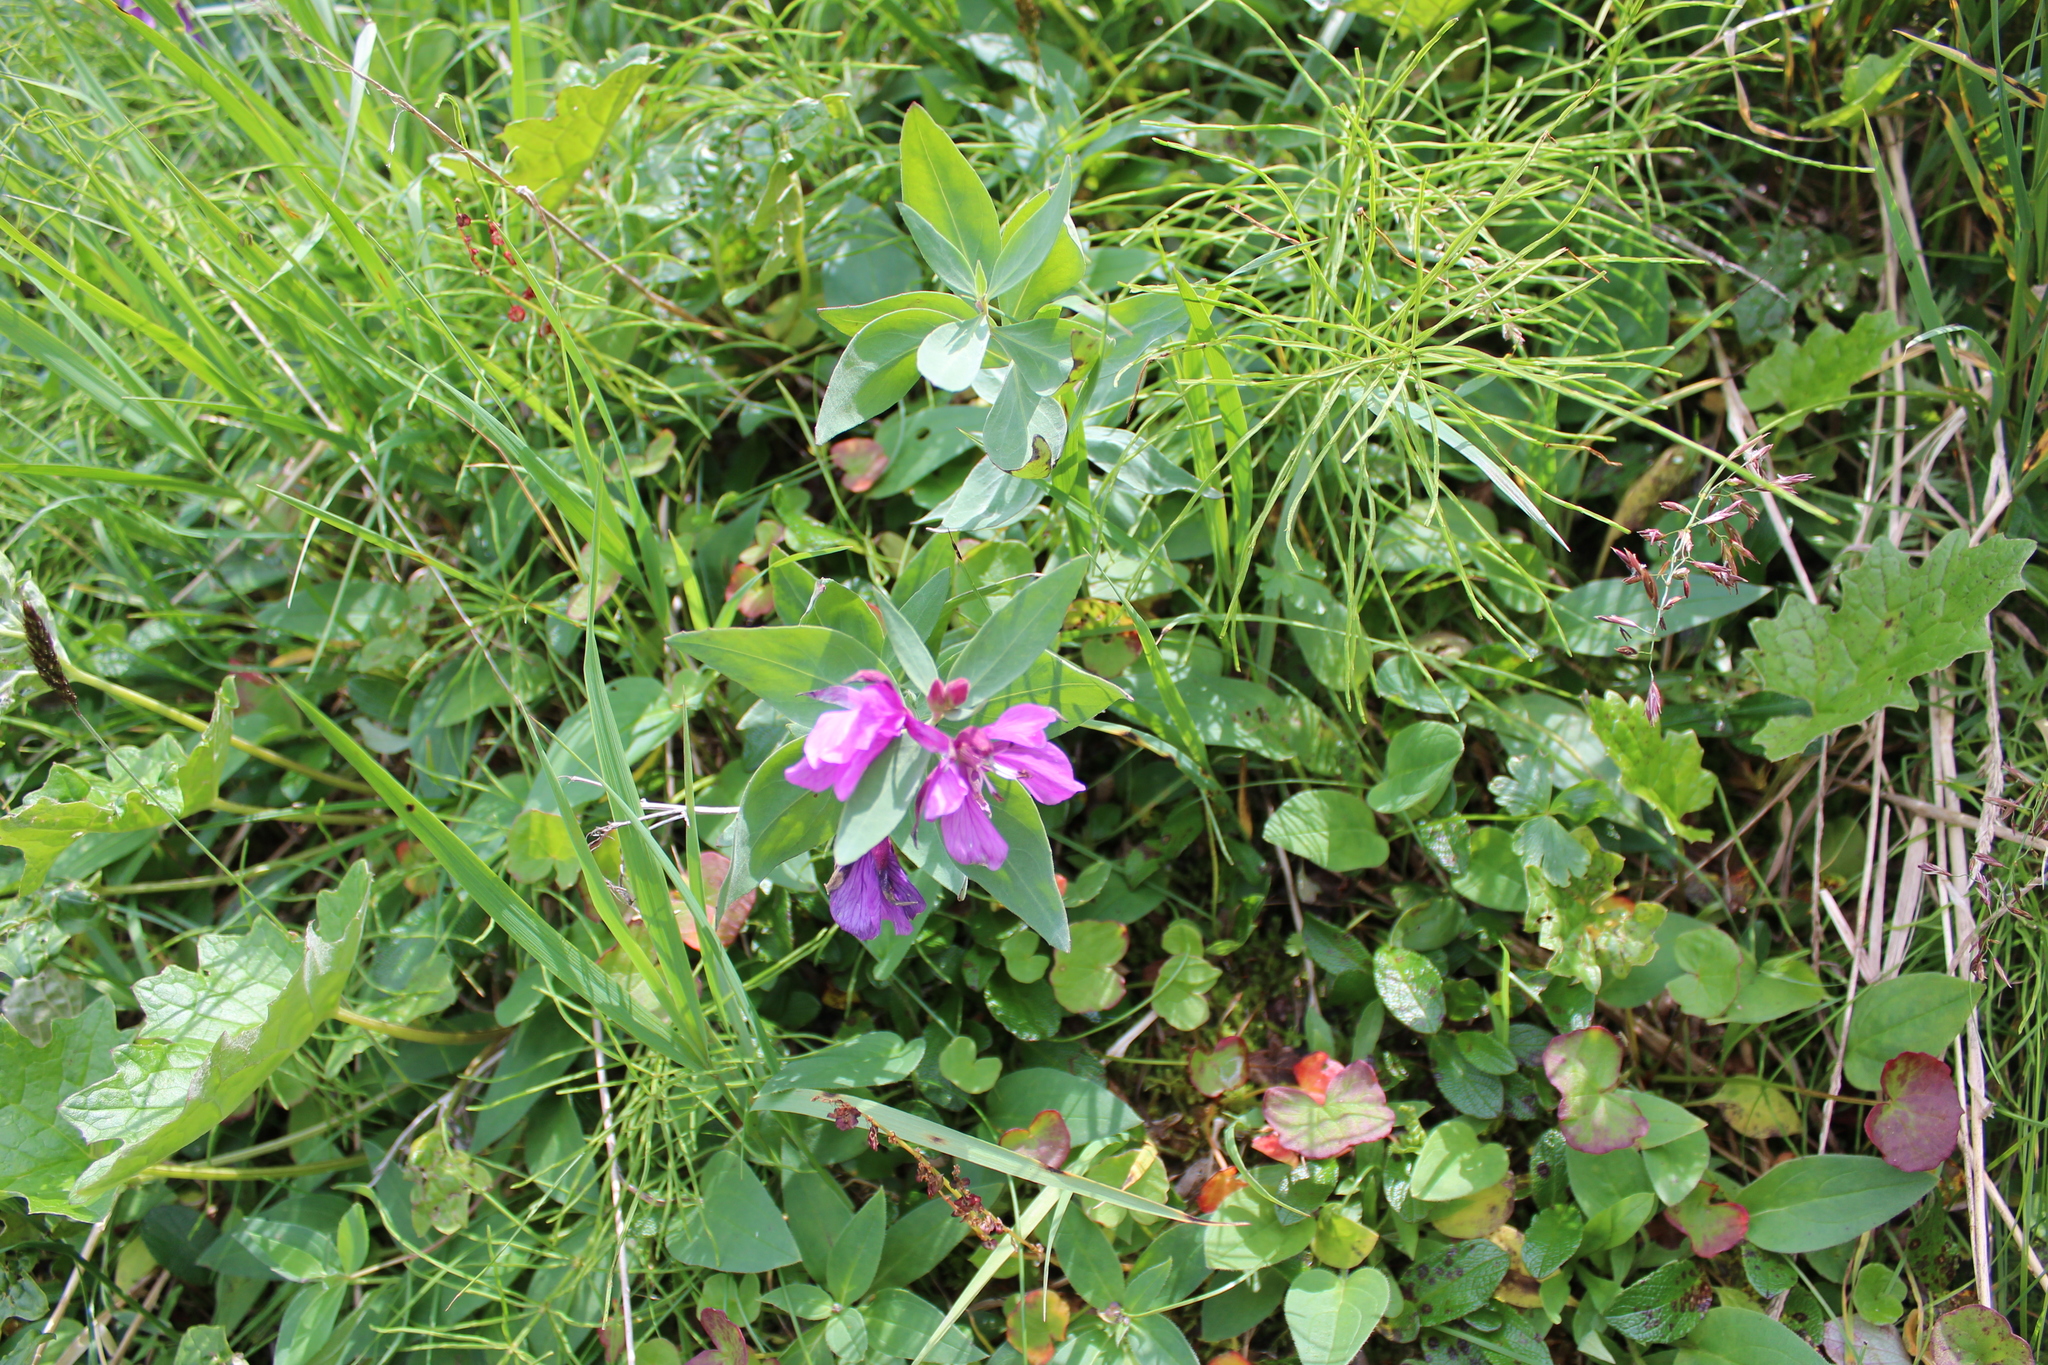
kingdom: Plantae
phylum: Tracheophyta
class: Magnoliopsida
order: Myrtales
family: Onagraceae
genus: Chamaenerion
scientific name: Chamaenerion latifolium
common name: Dwarf fireweed
